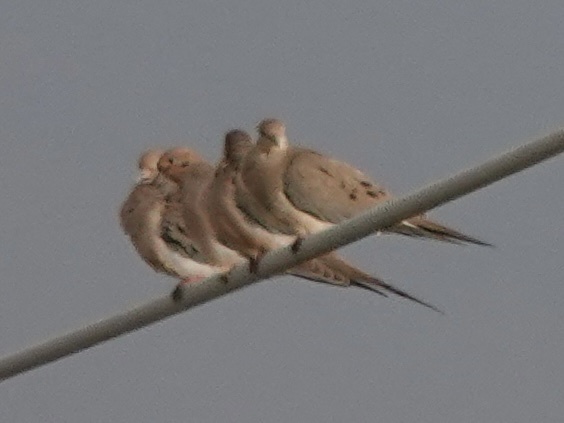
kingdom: Animalia
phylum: Chordata
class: Aves
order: Columbiformes
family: Columbidae
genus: Zenaida
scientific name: Zenaida macroura
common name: Mourning dove
